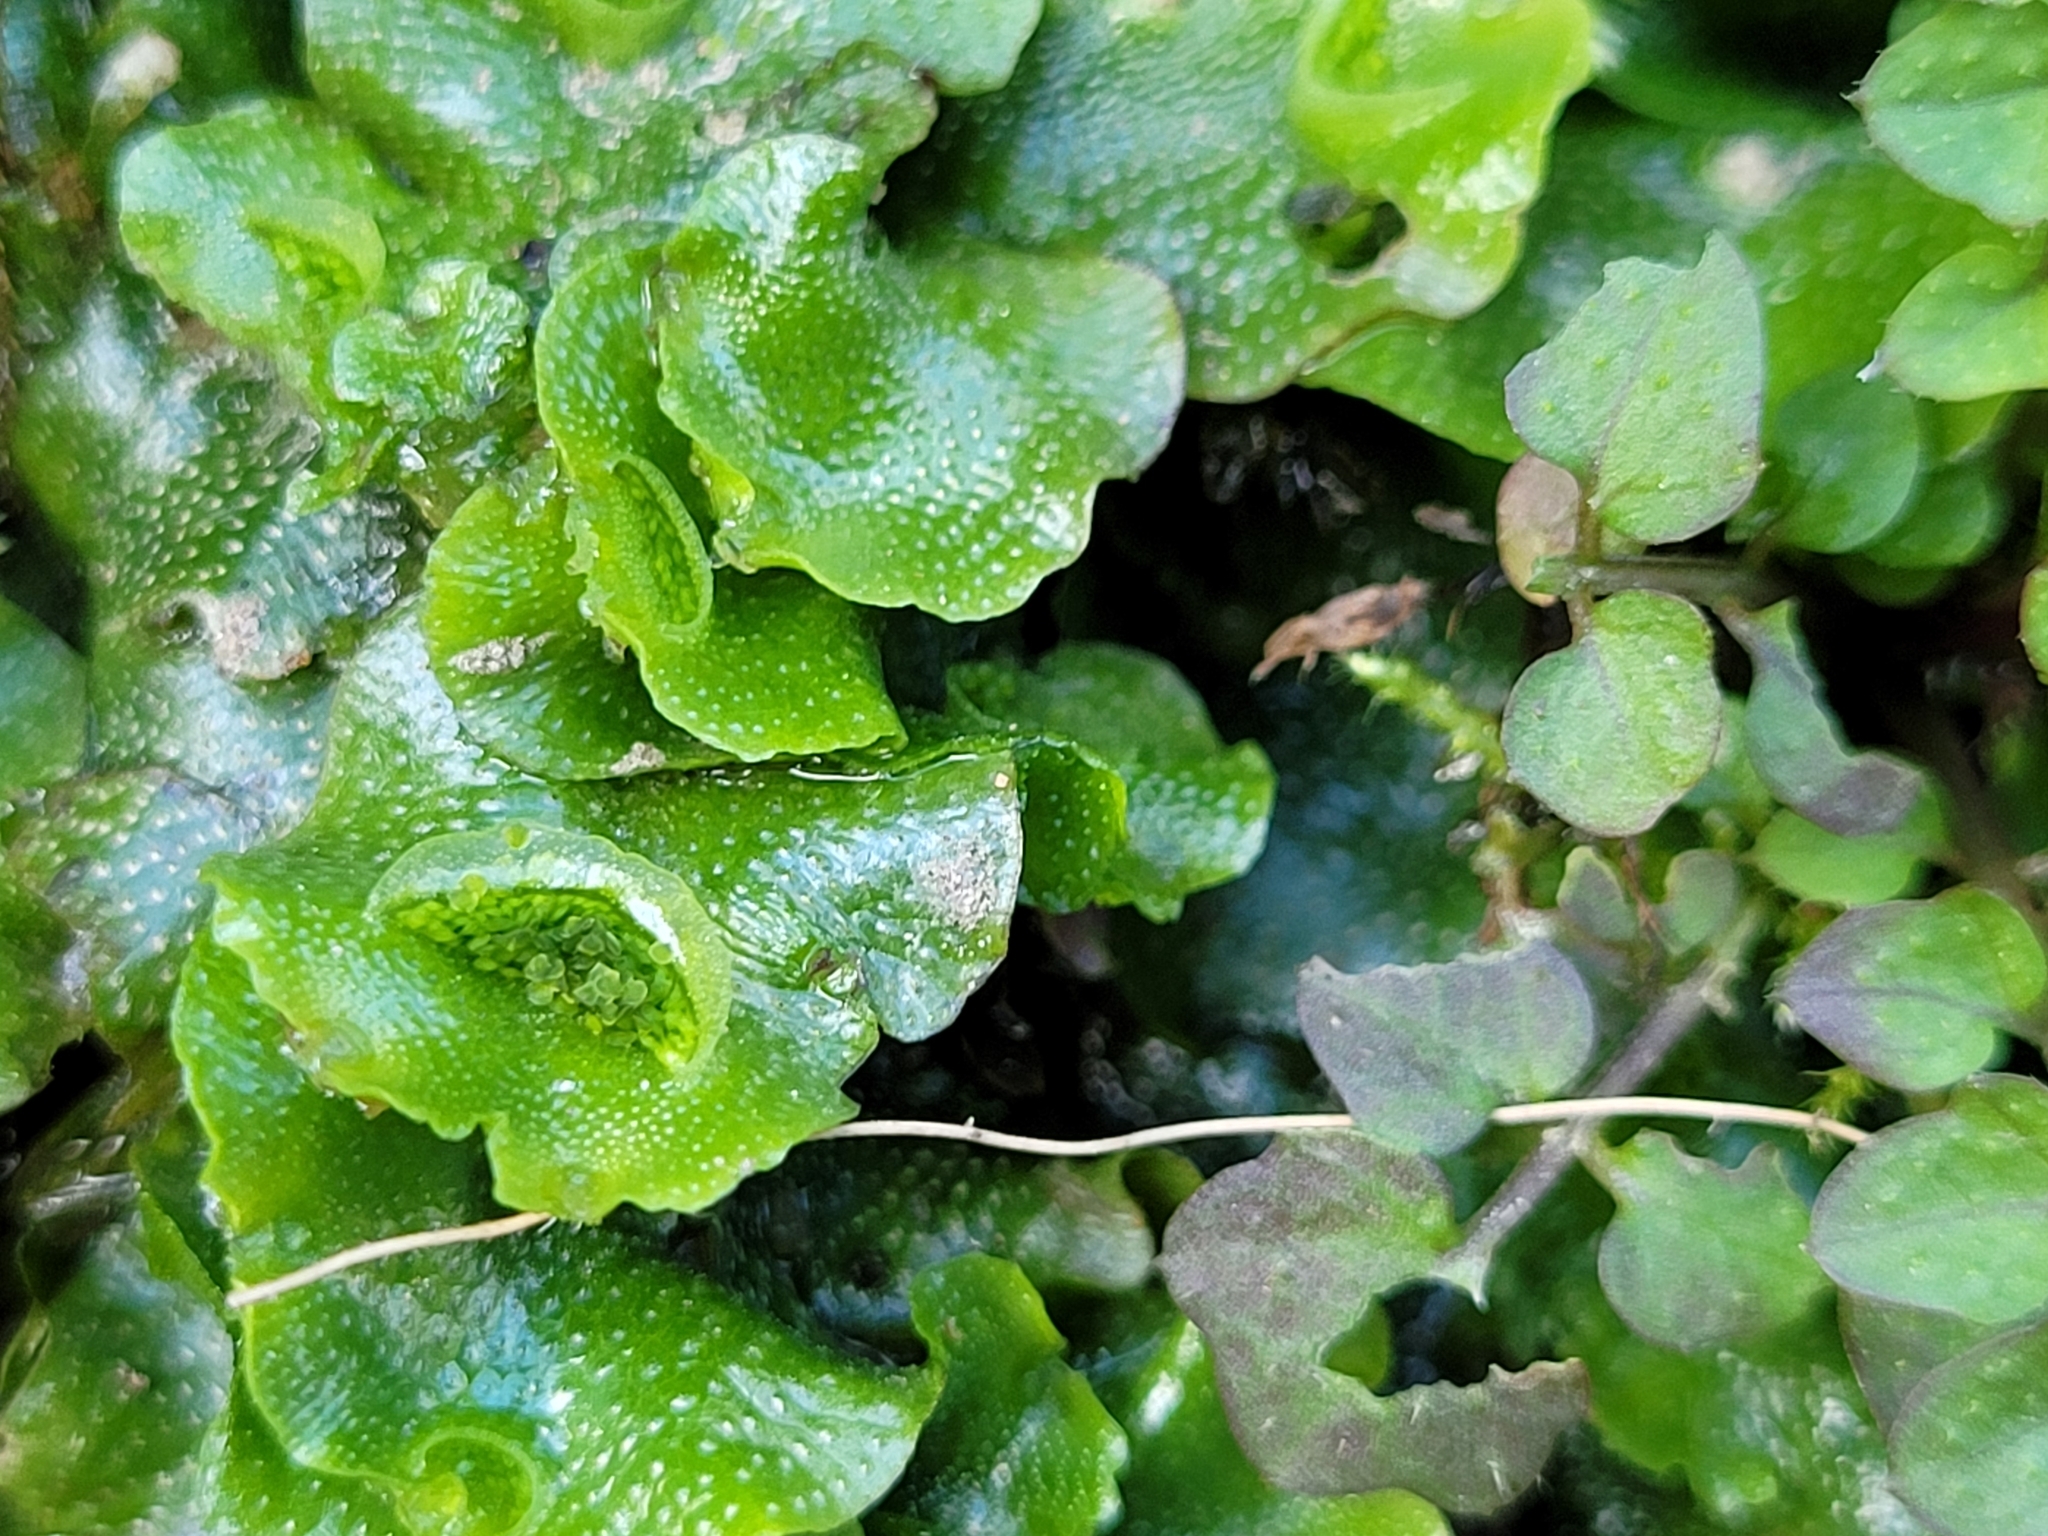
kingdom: Plantae
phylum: Marchantiophyta
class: Marchantiopsida
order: Lunulariales
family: Lunulariaceae
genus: Lunularia
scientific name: Lunularia cruciata
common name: Crescent-cup liverwort
